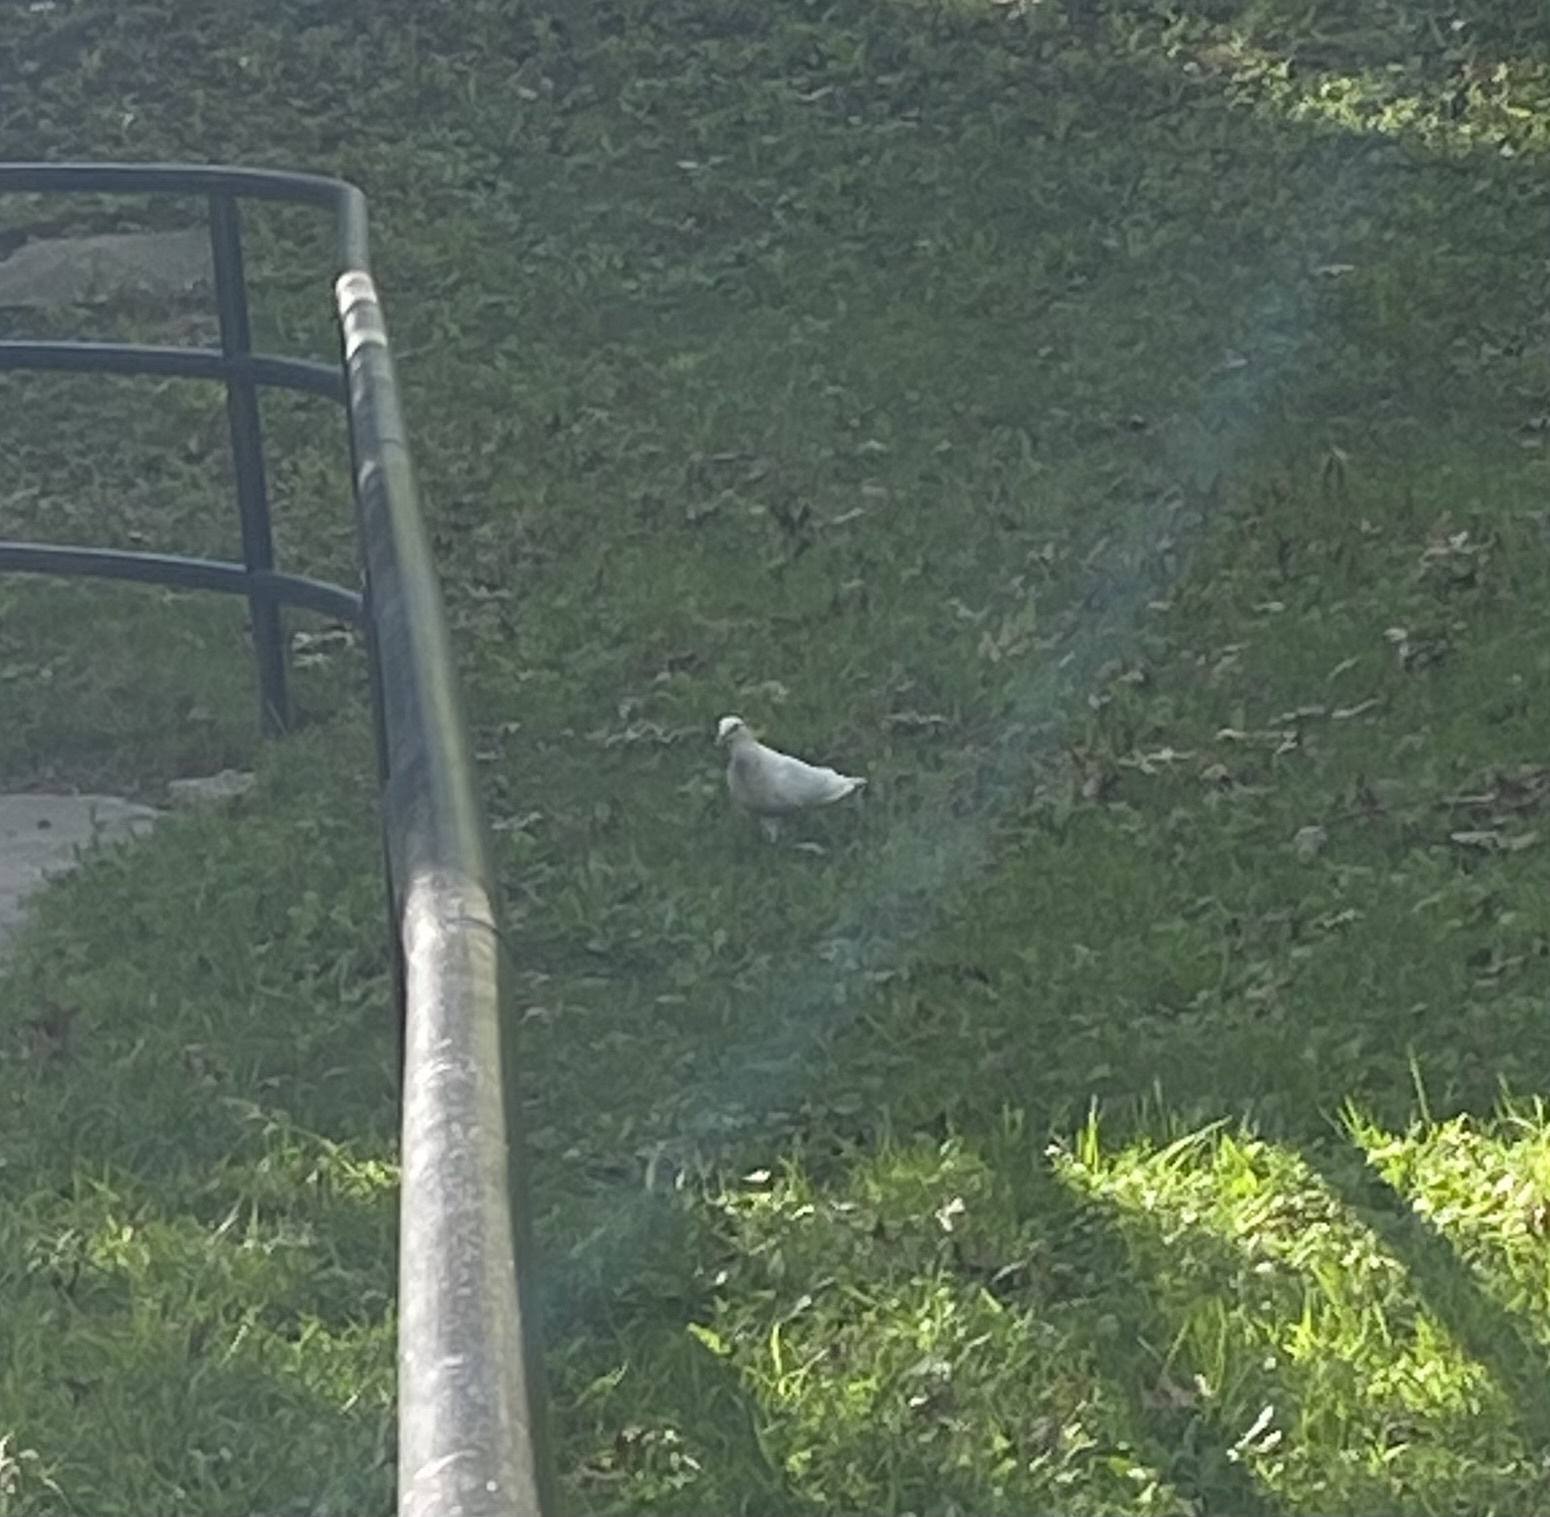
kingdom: Animalia
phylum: Chordata
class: Aves
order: Columbiformes
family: Columbidae
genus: Columba
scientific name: Columba livia
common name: Rock pigeon
